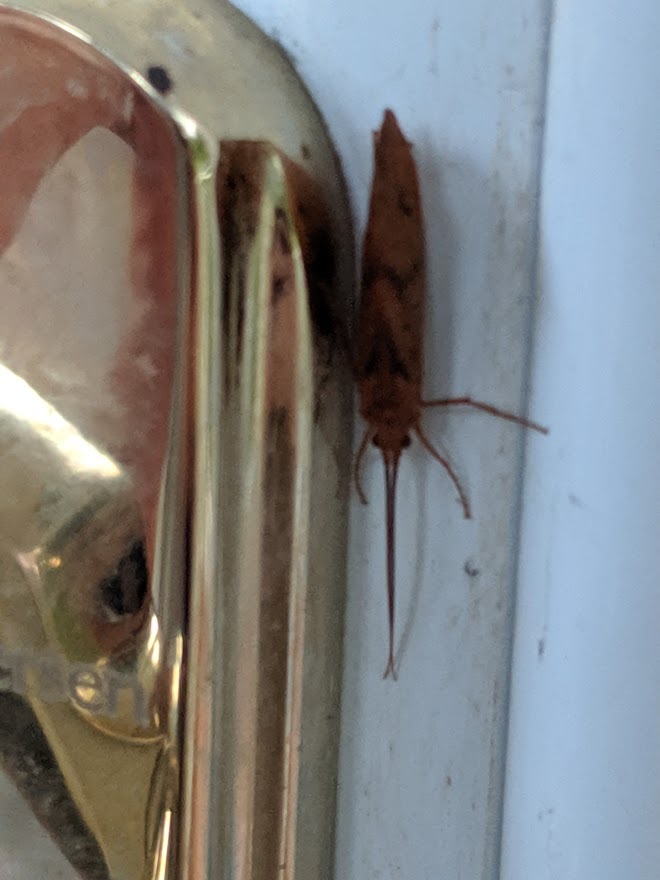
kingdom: Animalia
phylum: Arthropoda
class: Insecta
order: Trichoptera
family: Limnephilidae
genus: Pycnopsyche
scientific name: Pycnopsyche antica
